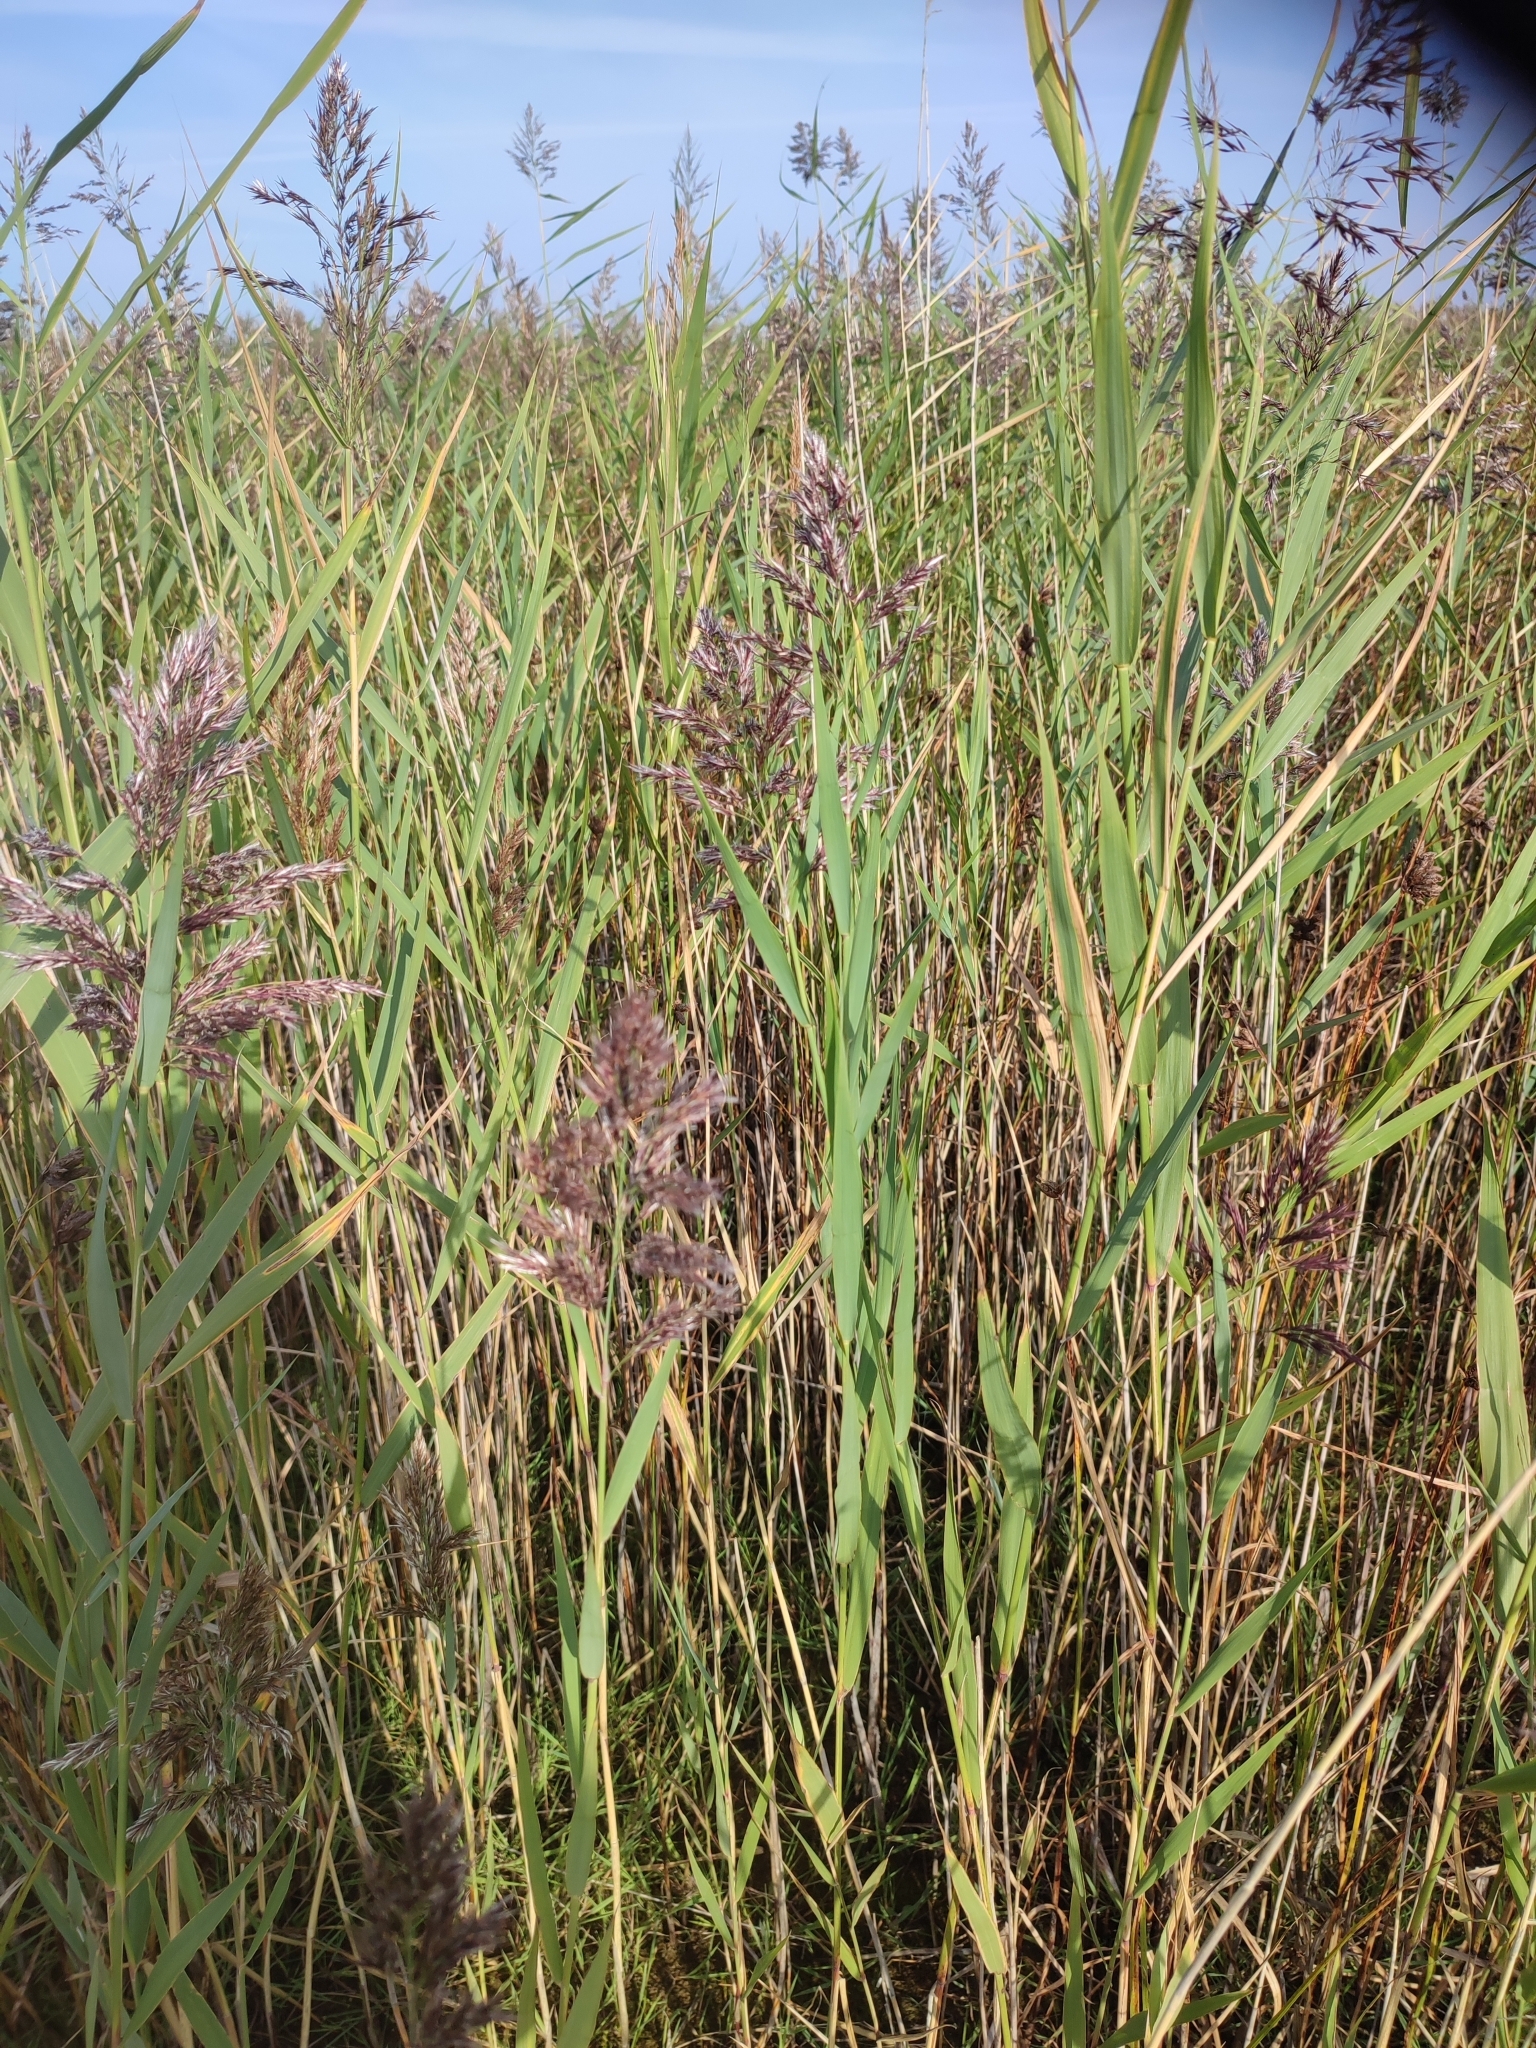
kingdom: Plantae
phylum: Tracheophyta
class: Liliopsida
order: Poales
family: Poaceae
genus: Phragmites
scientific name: Phragmites australis
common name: Common reed
